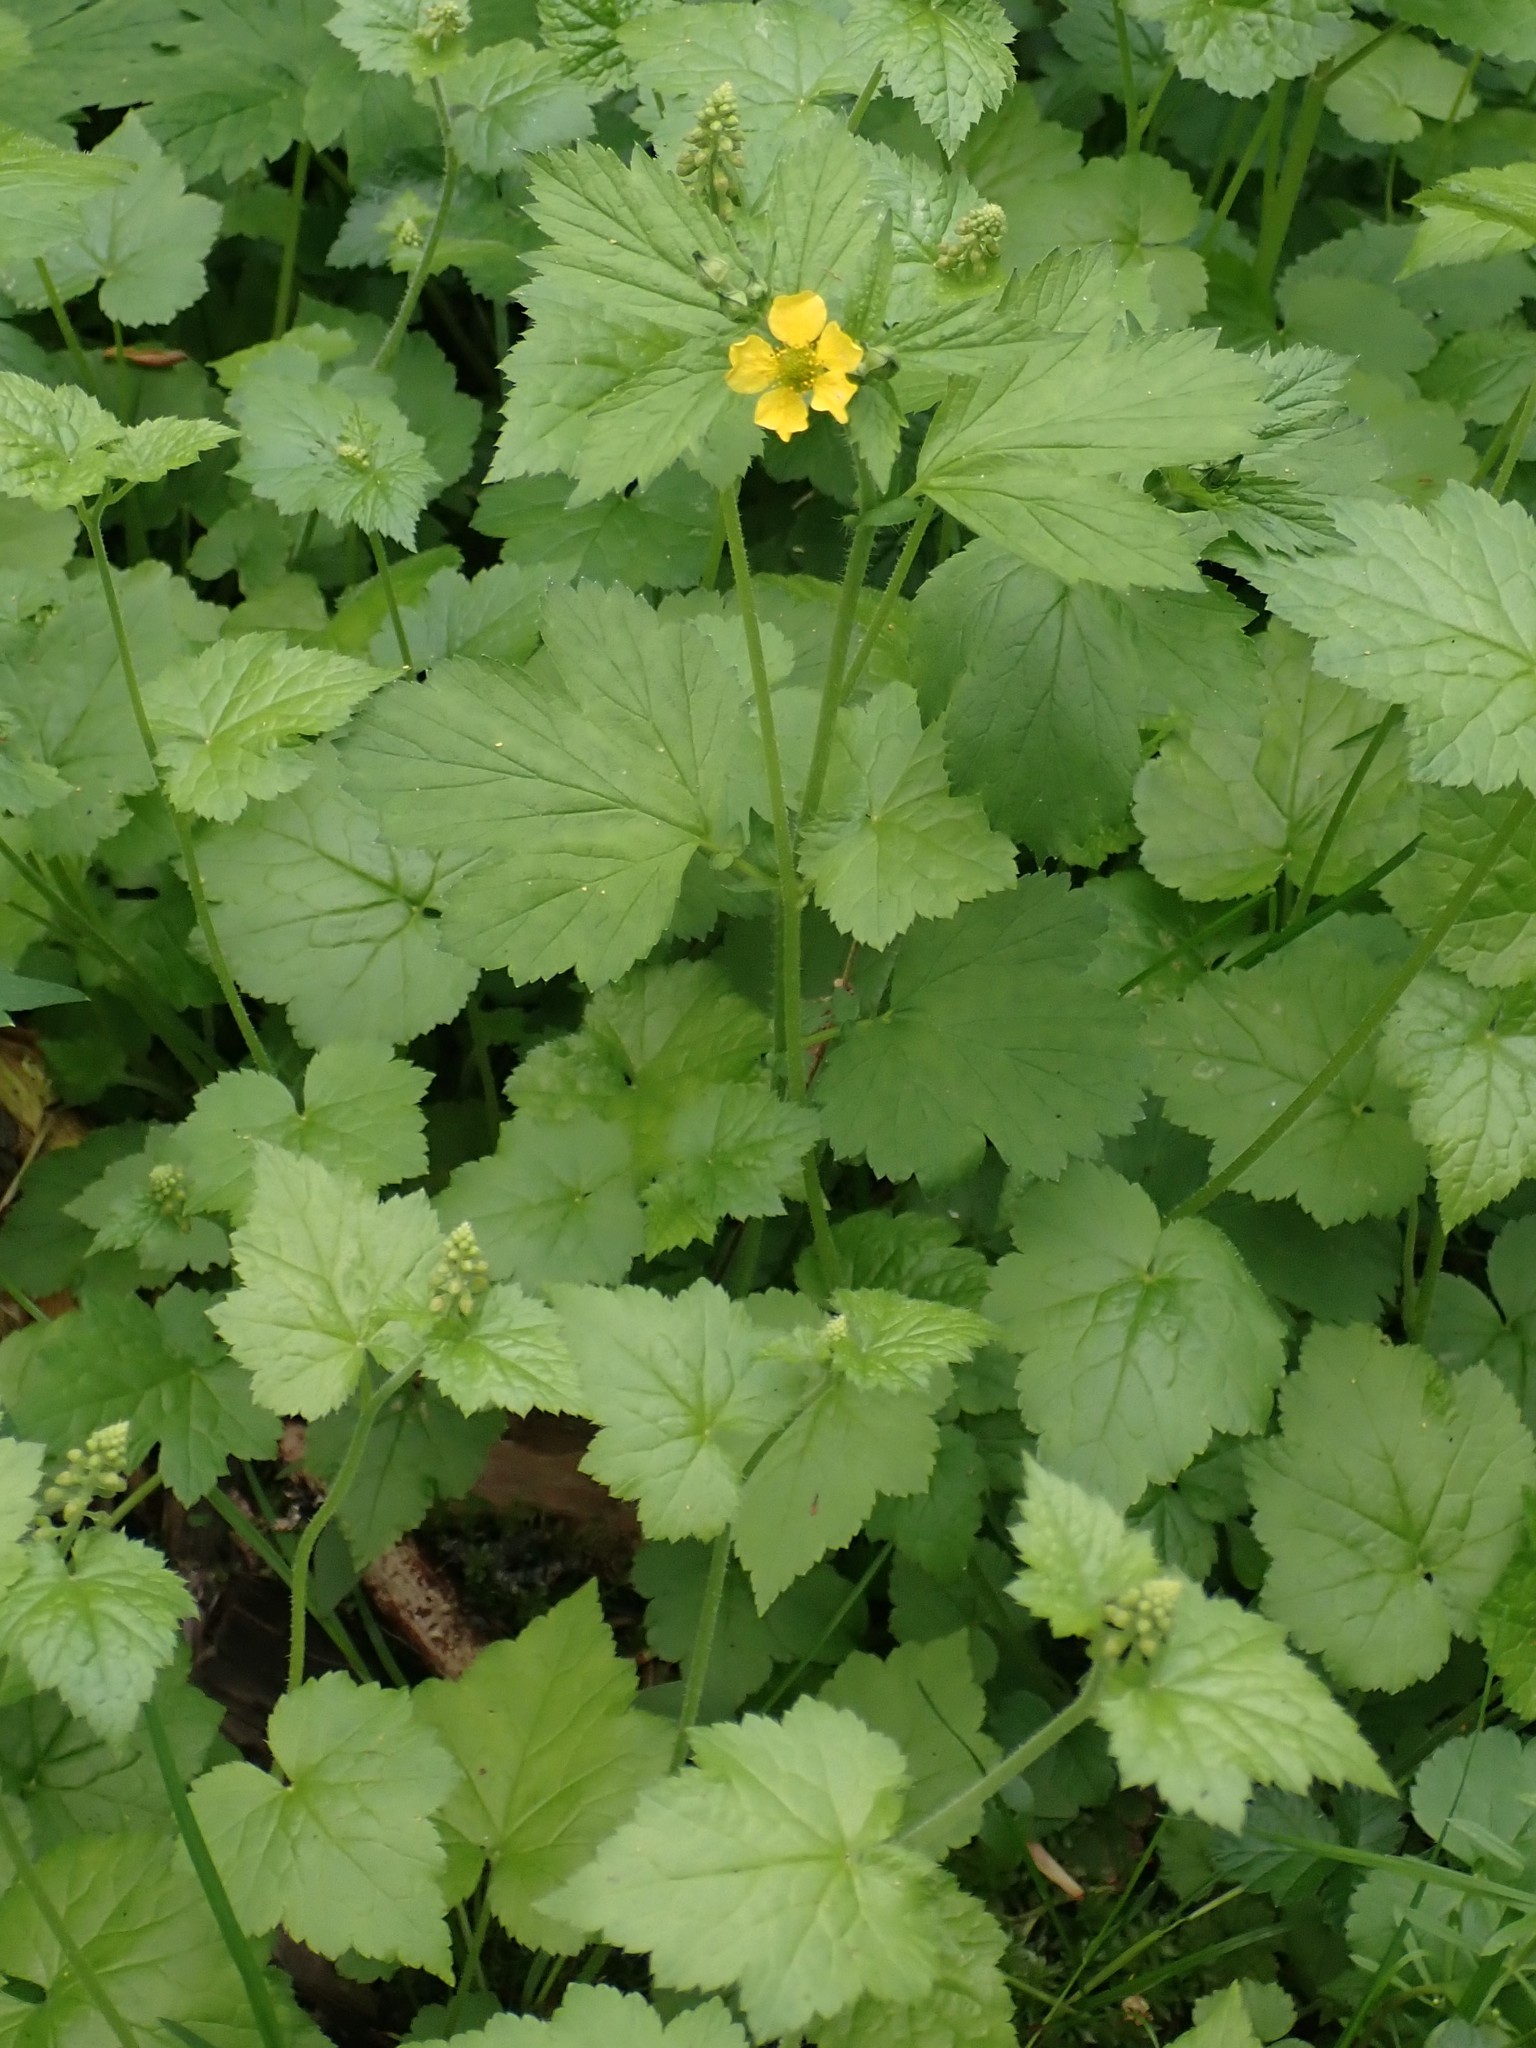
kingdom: Plantae
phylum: Tracheophyta
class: Magnoliopsida
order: Rosales
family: Rosaceae
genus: Geum
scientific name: Geum macrophyllum
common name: Large-leaved avens
